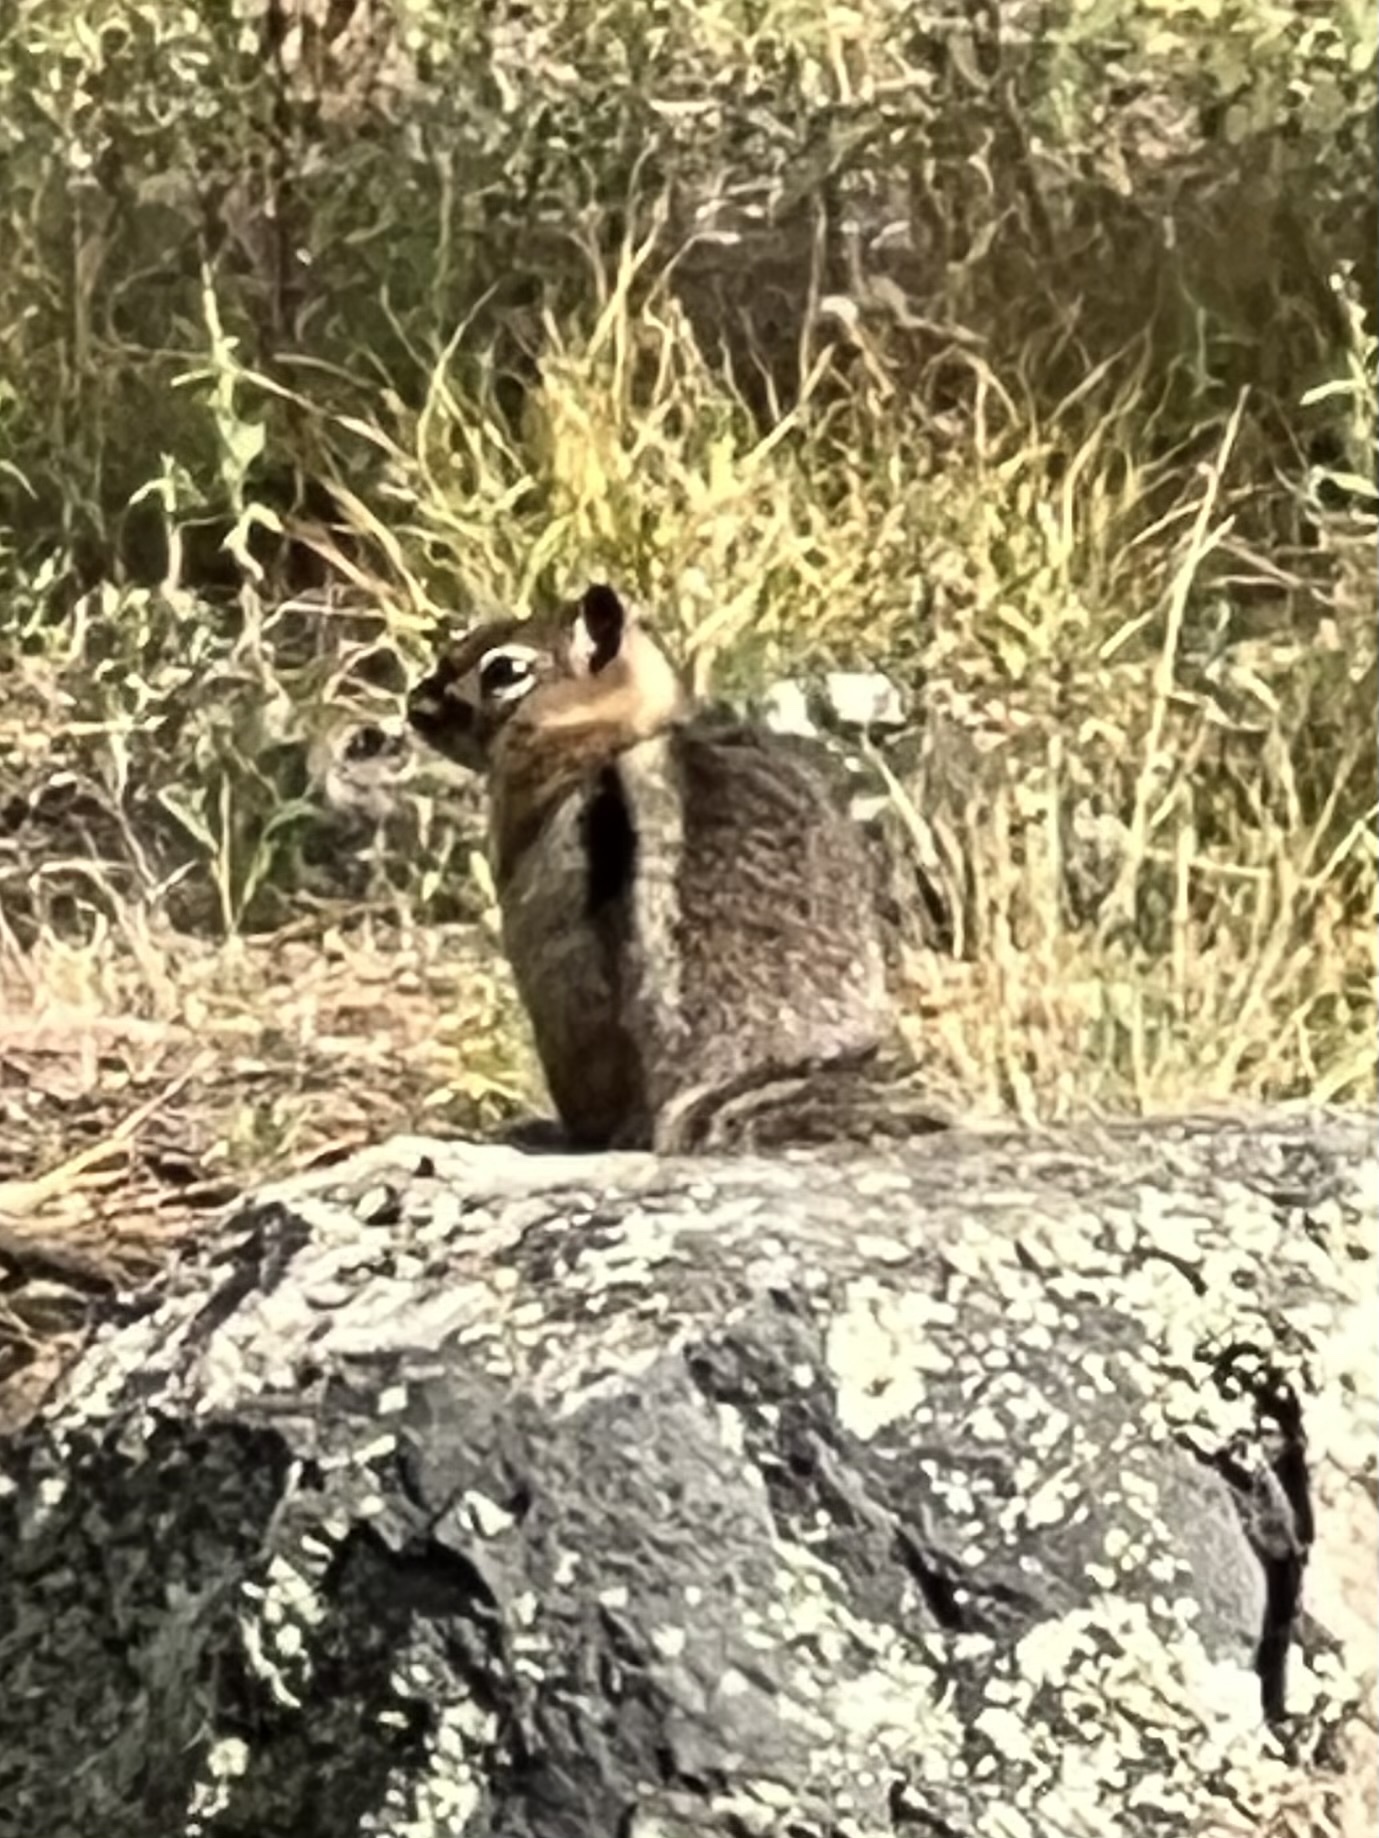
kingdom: Animalia
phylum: Chordata
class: Mammalia
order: Rodentia
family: Sciuridae
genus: Callospermophilus
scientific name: Callospermophilus lateralis
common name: Golden-mantled ground squirrel
